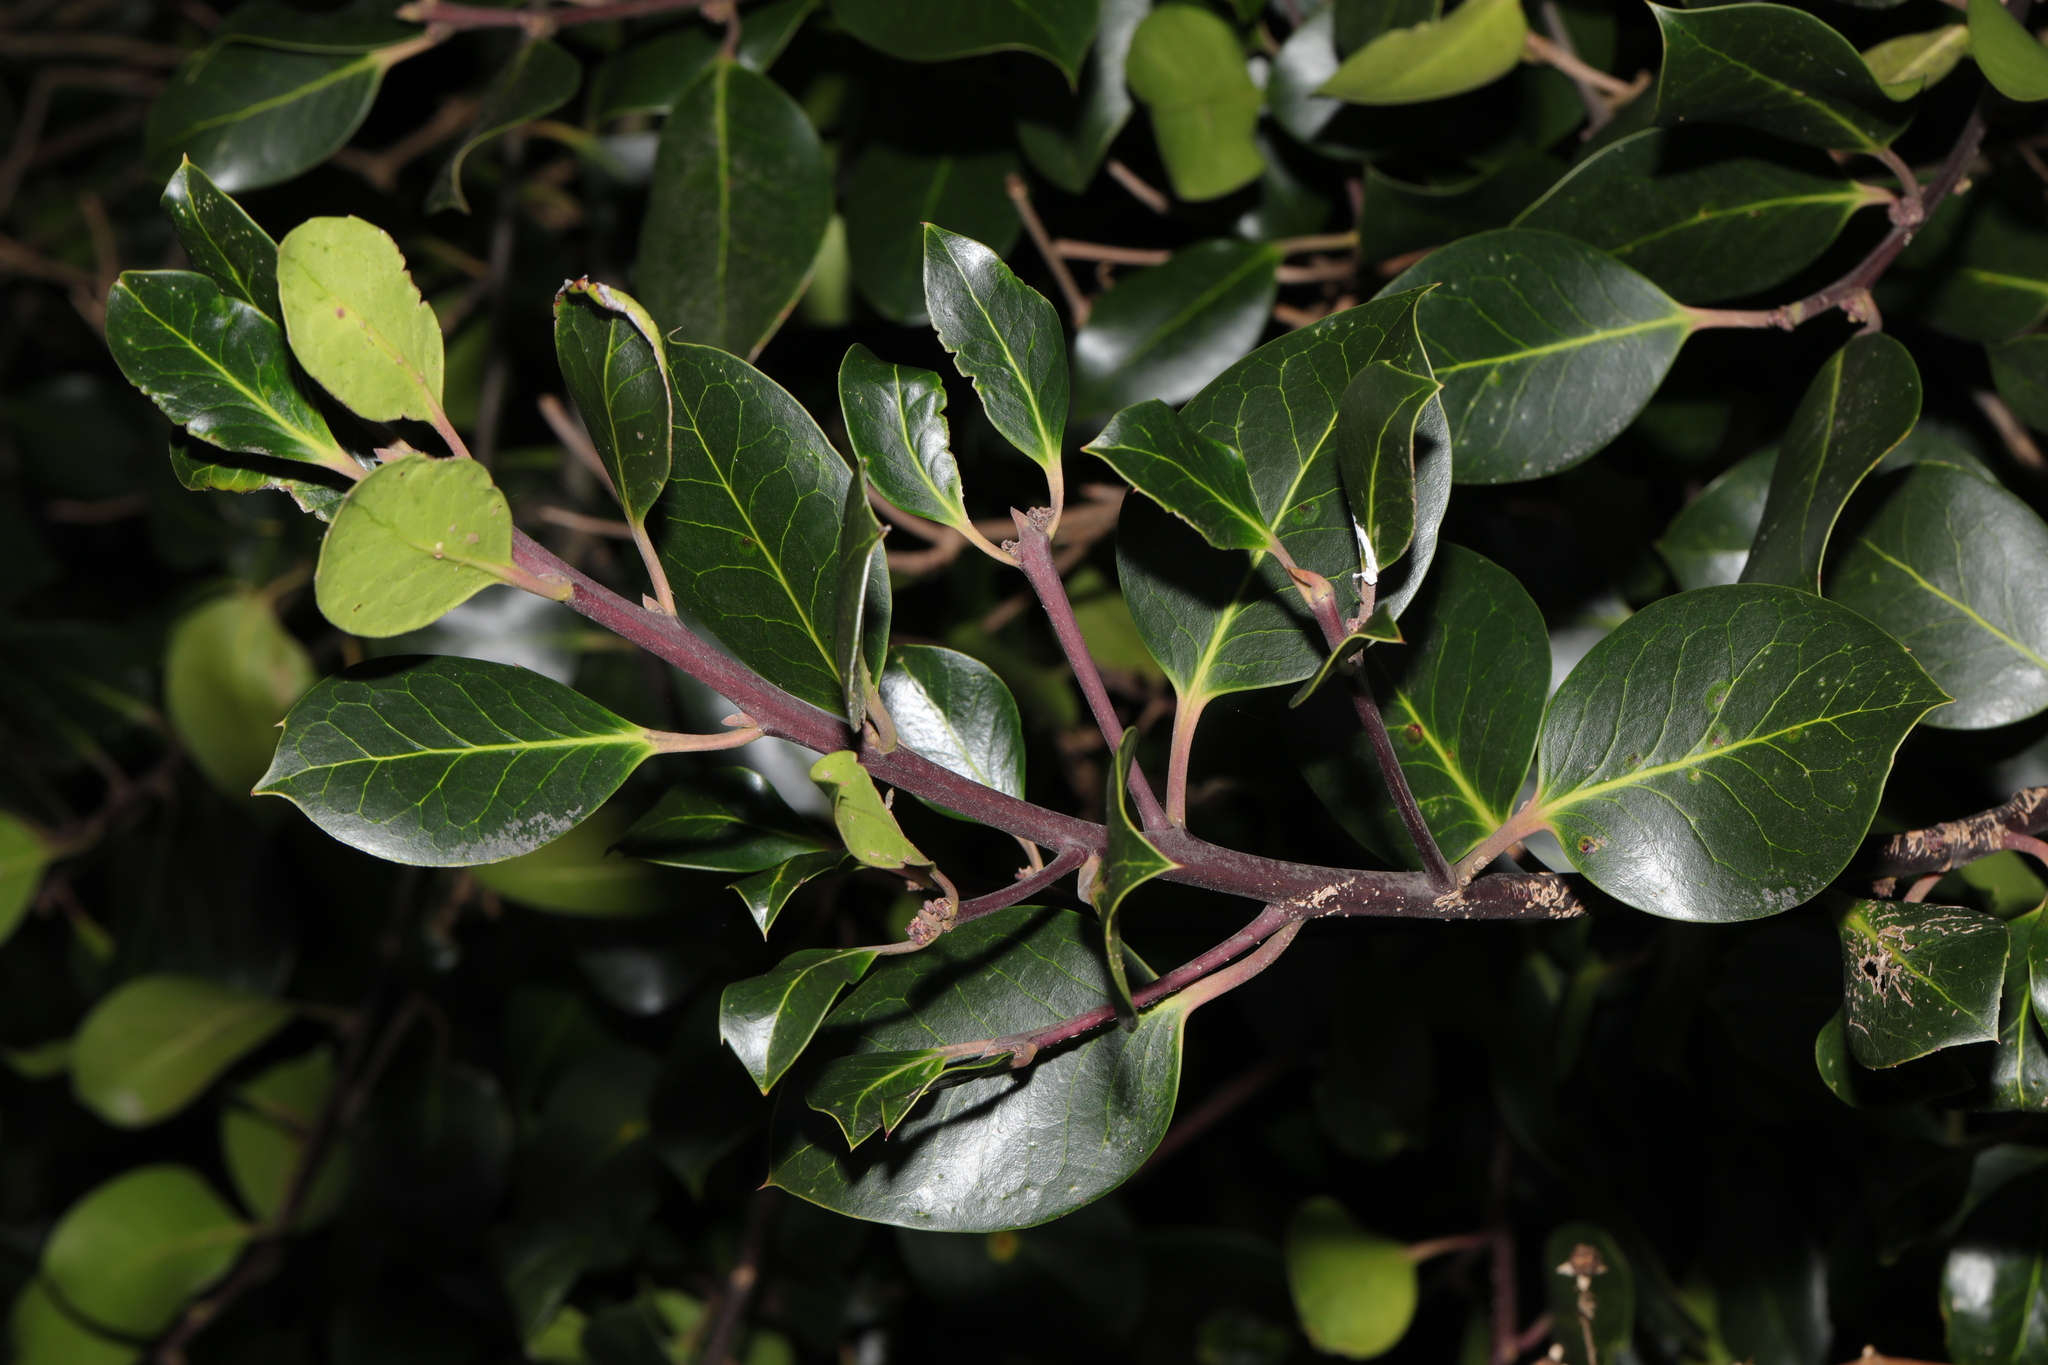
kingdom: Plantae
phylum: Tracheophyta
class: Magnoliopsida
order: Aquifoliales
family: Aquifoliaceae
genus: Ilex
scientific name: Ilex altaclerensis
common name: Highclere holly
